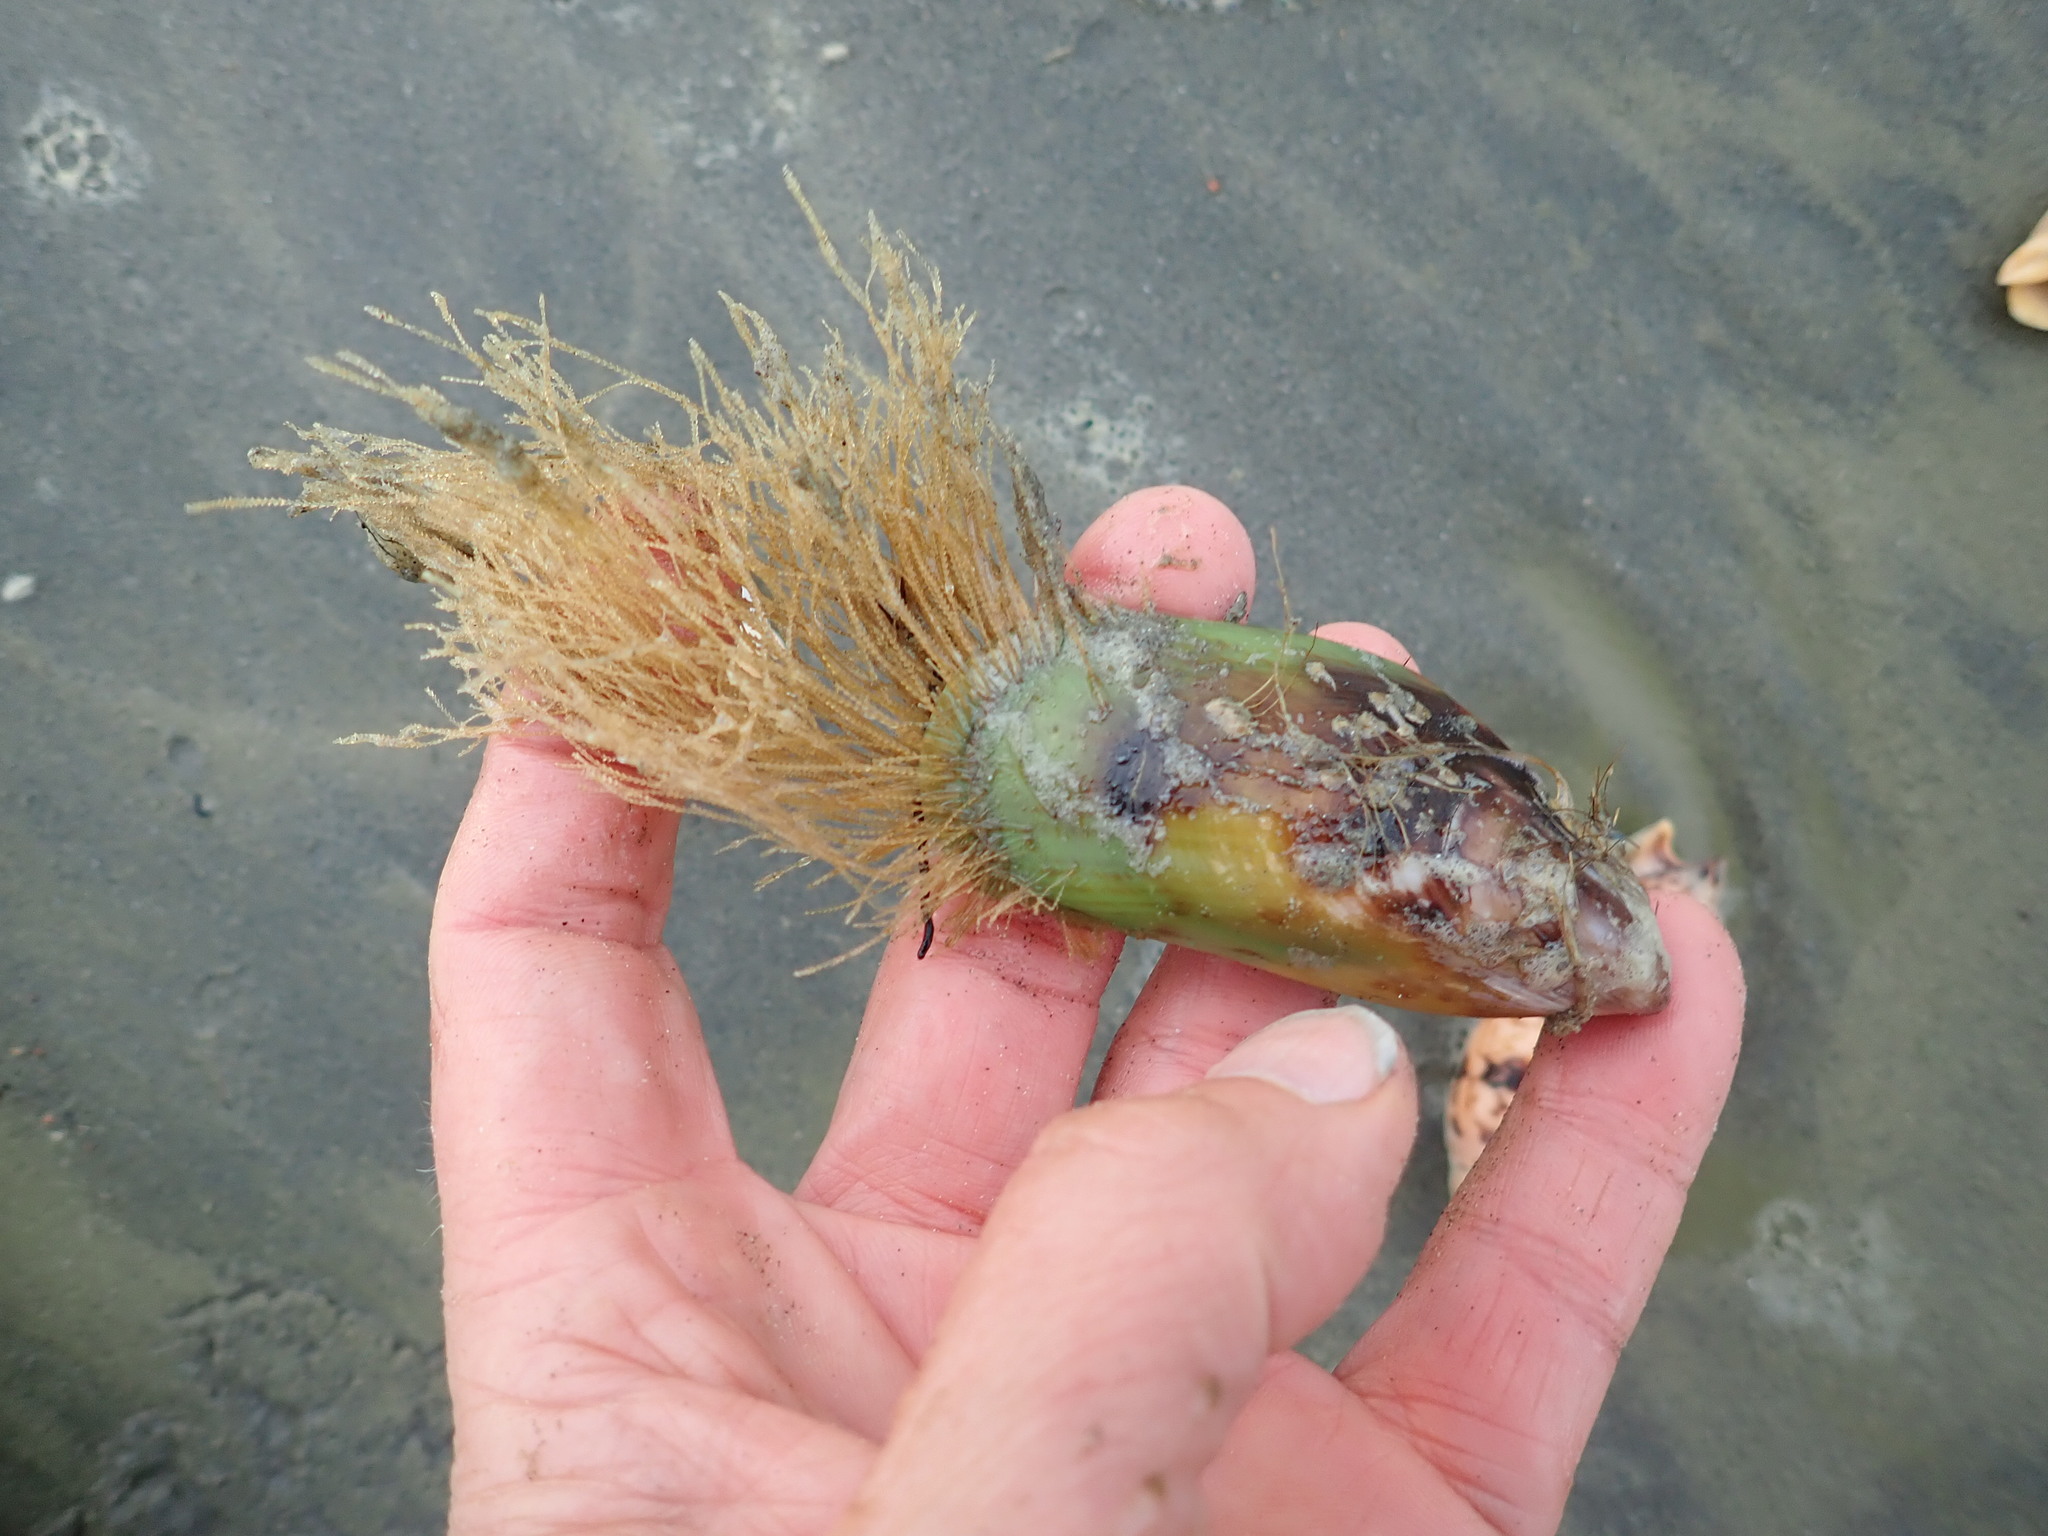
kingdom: Animalia
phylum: Cnidaria
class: Hydrozoa
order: Leptothecata
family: Sertulariidae
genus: Amphisbetia
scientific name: Amphisbetia bispinosa
